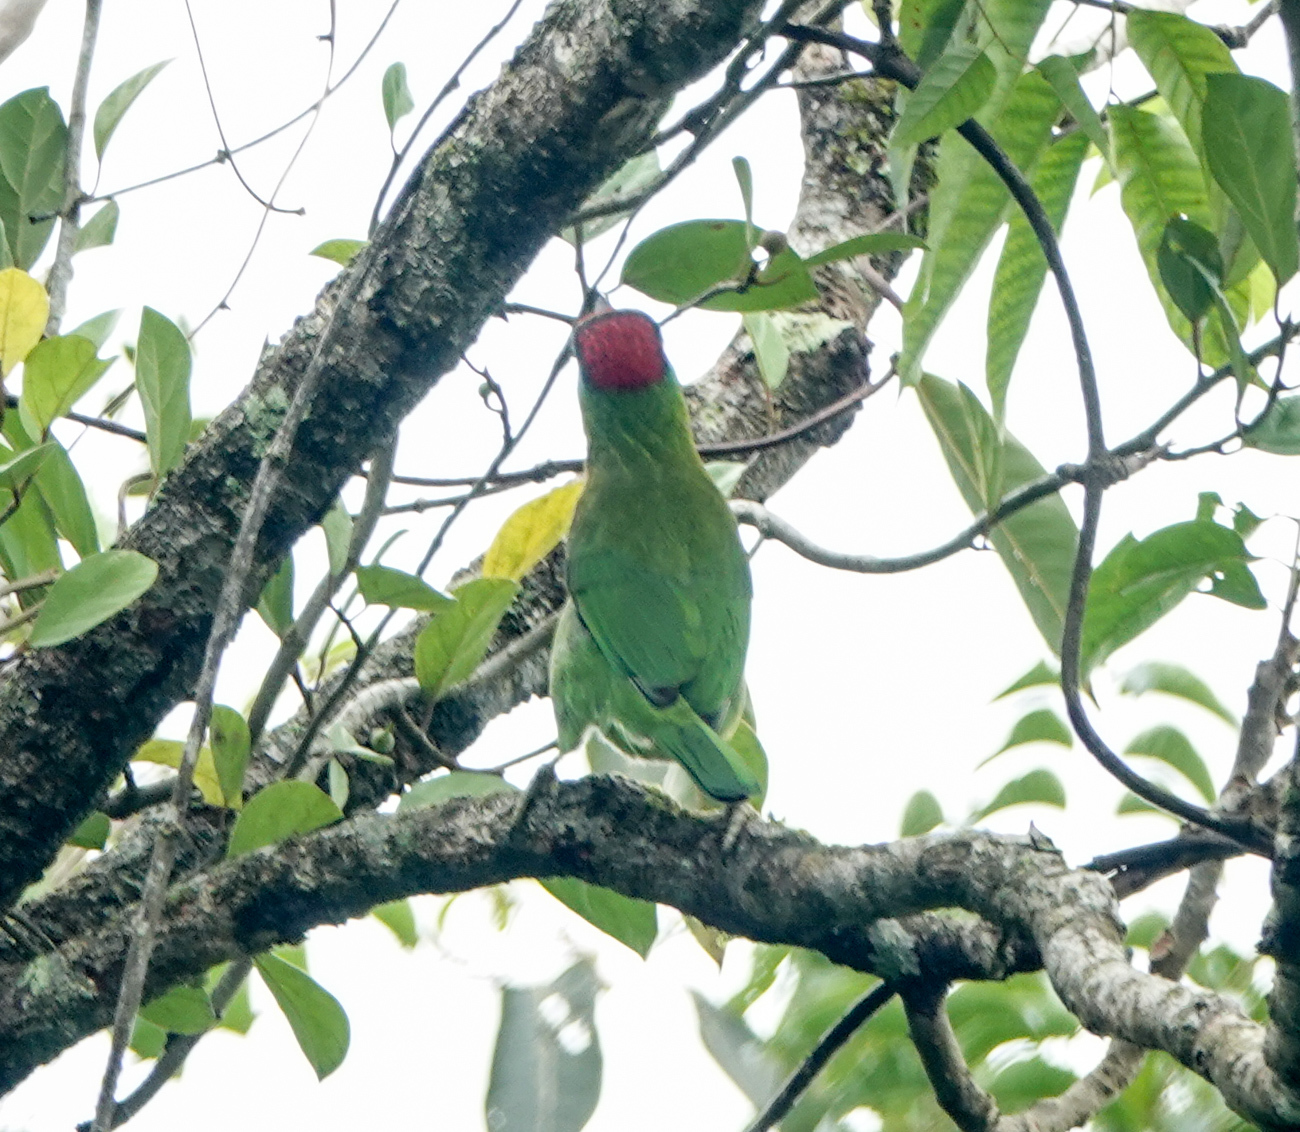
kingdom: Animalia
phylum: Chordata
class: Aves
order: Piciformes
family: Megalaimidae
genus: Psilopogon
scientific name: Psilopogon asiaticus
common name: Blue-throated barbet
